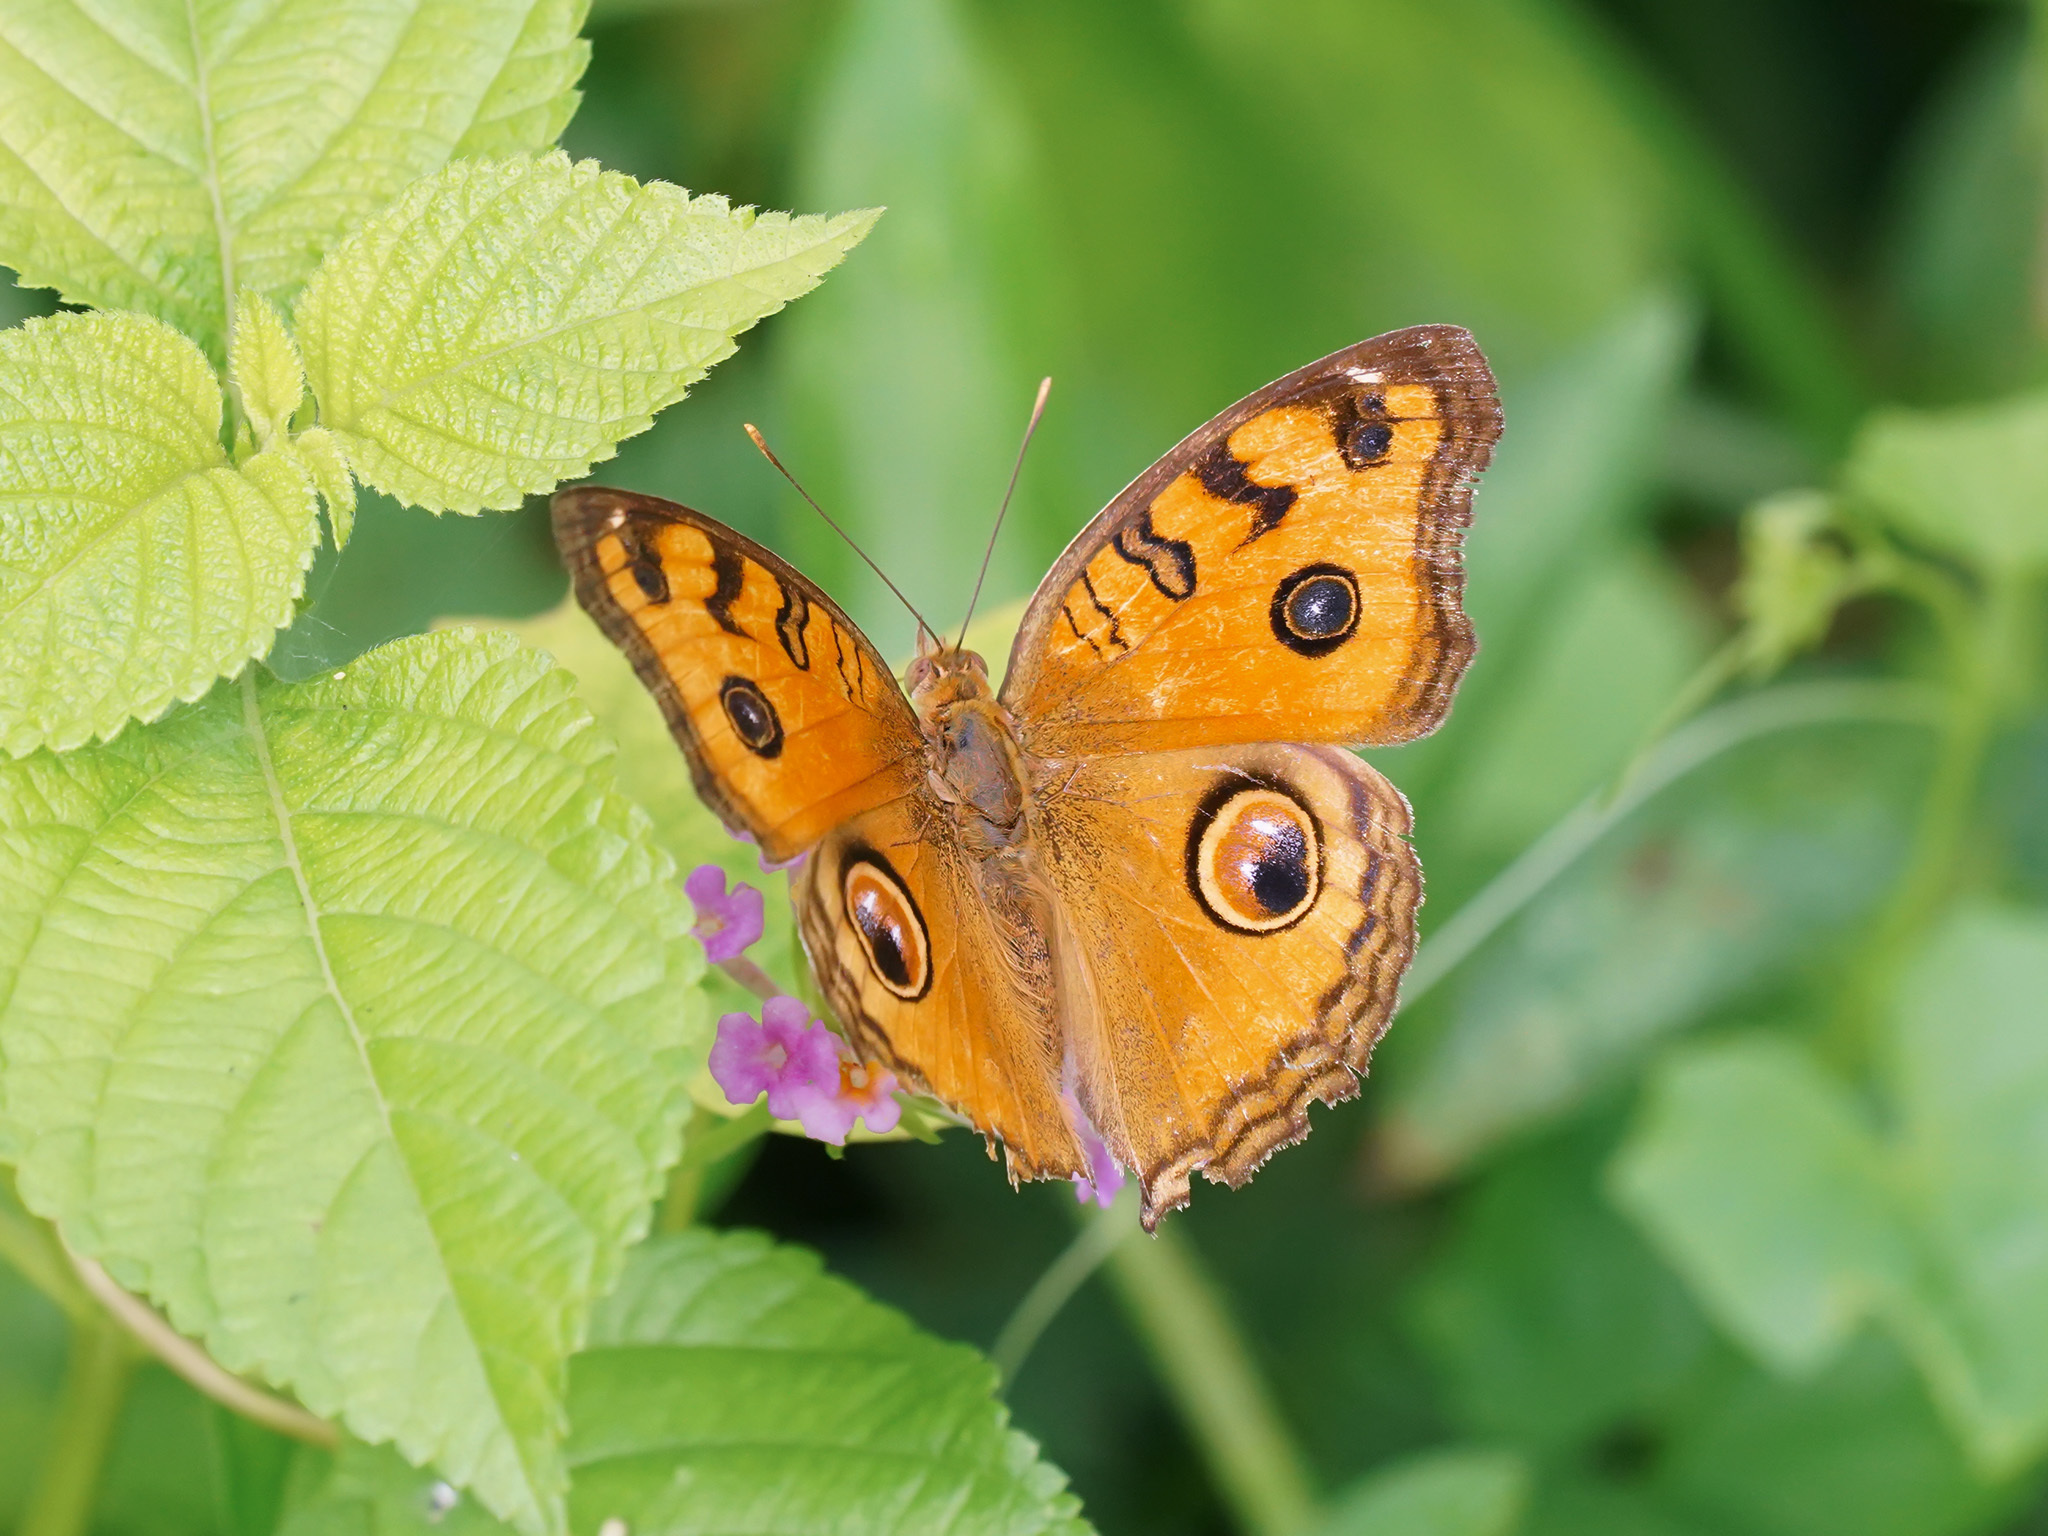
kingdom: Animalia
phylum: Arthropoda
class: Insecta
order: Lepidoptera
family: Nymphalidae
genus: Junonia
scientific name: Junonia almana
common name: Peacock pansy
